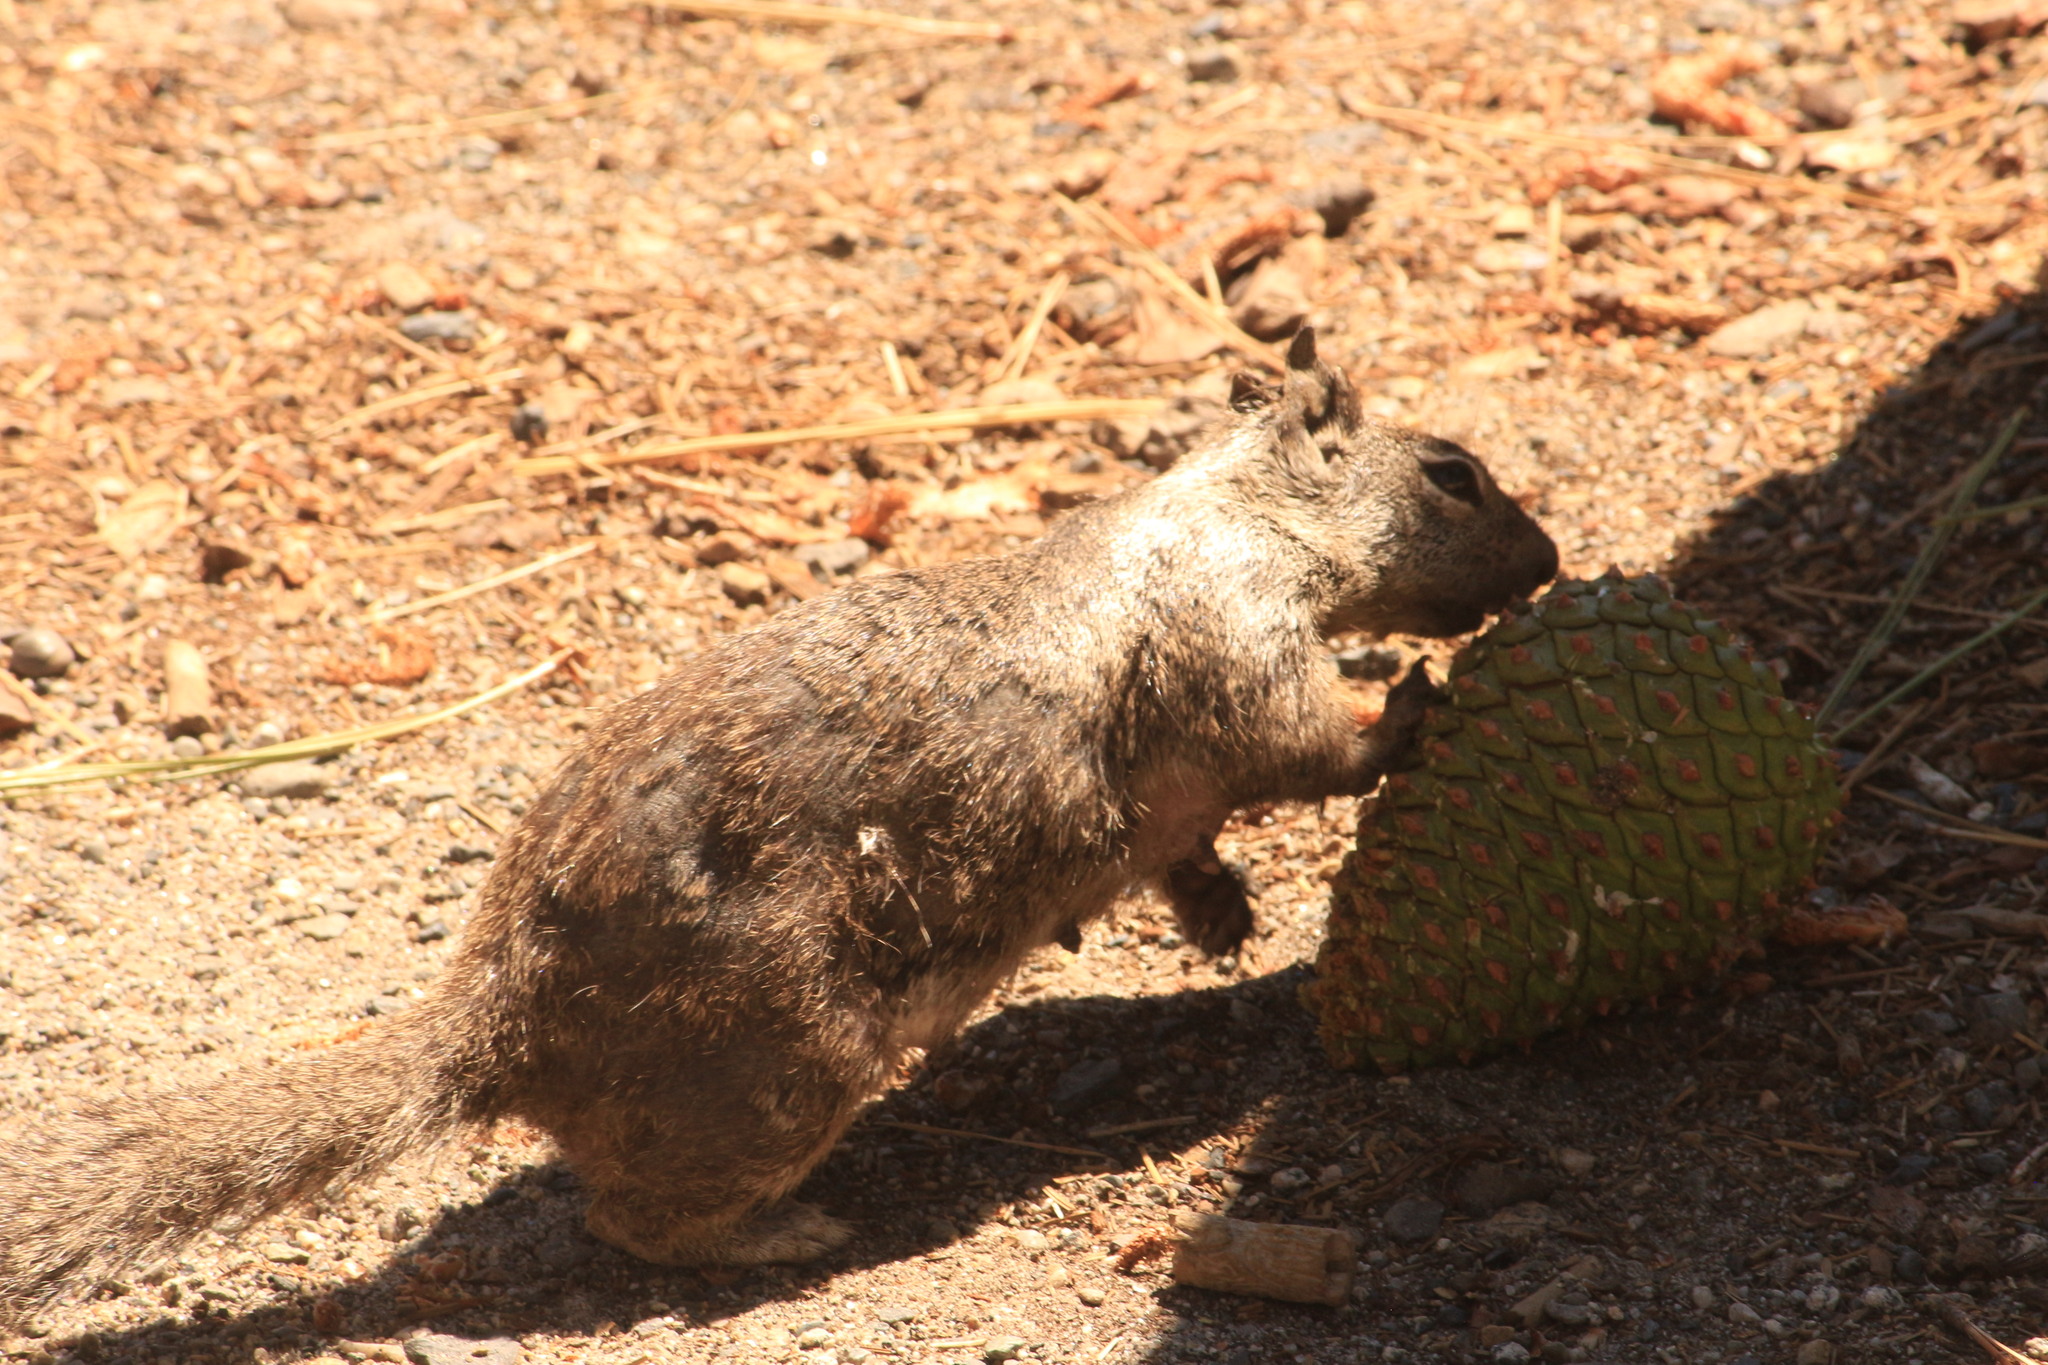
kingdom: Animalia
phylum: Chordata
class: Mammalia
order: Rodentia
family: Sciuridae
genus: Otospermophilus
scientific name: Otospermophilus beecheyi
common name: California ground squirrel
